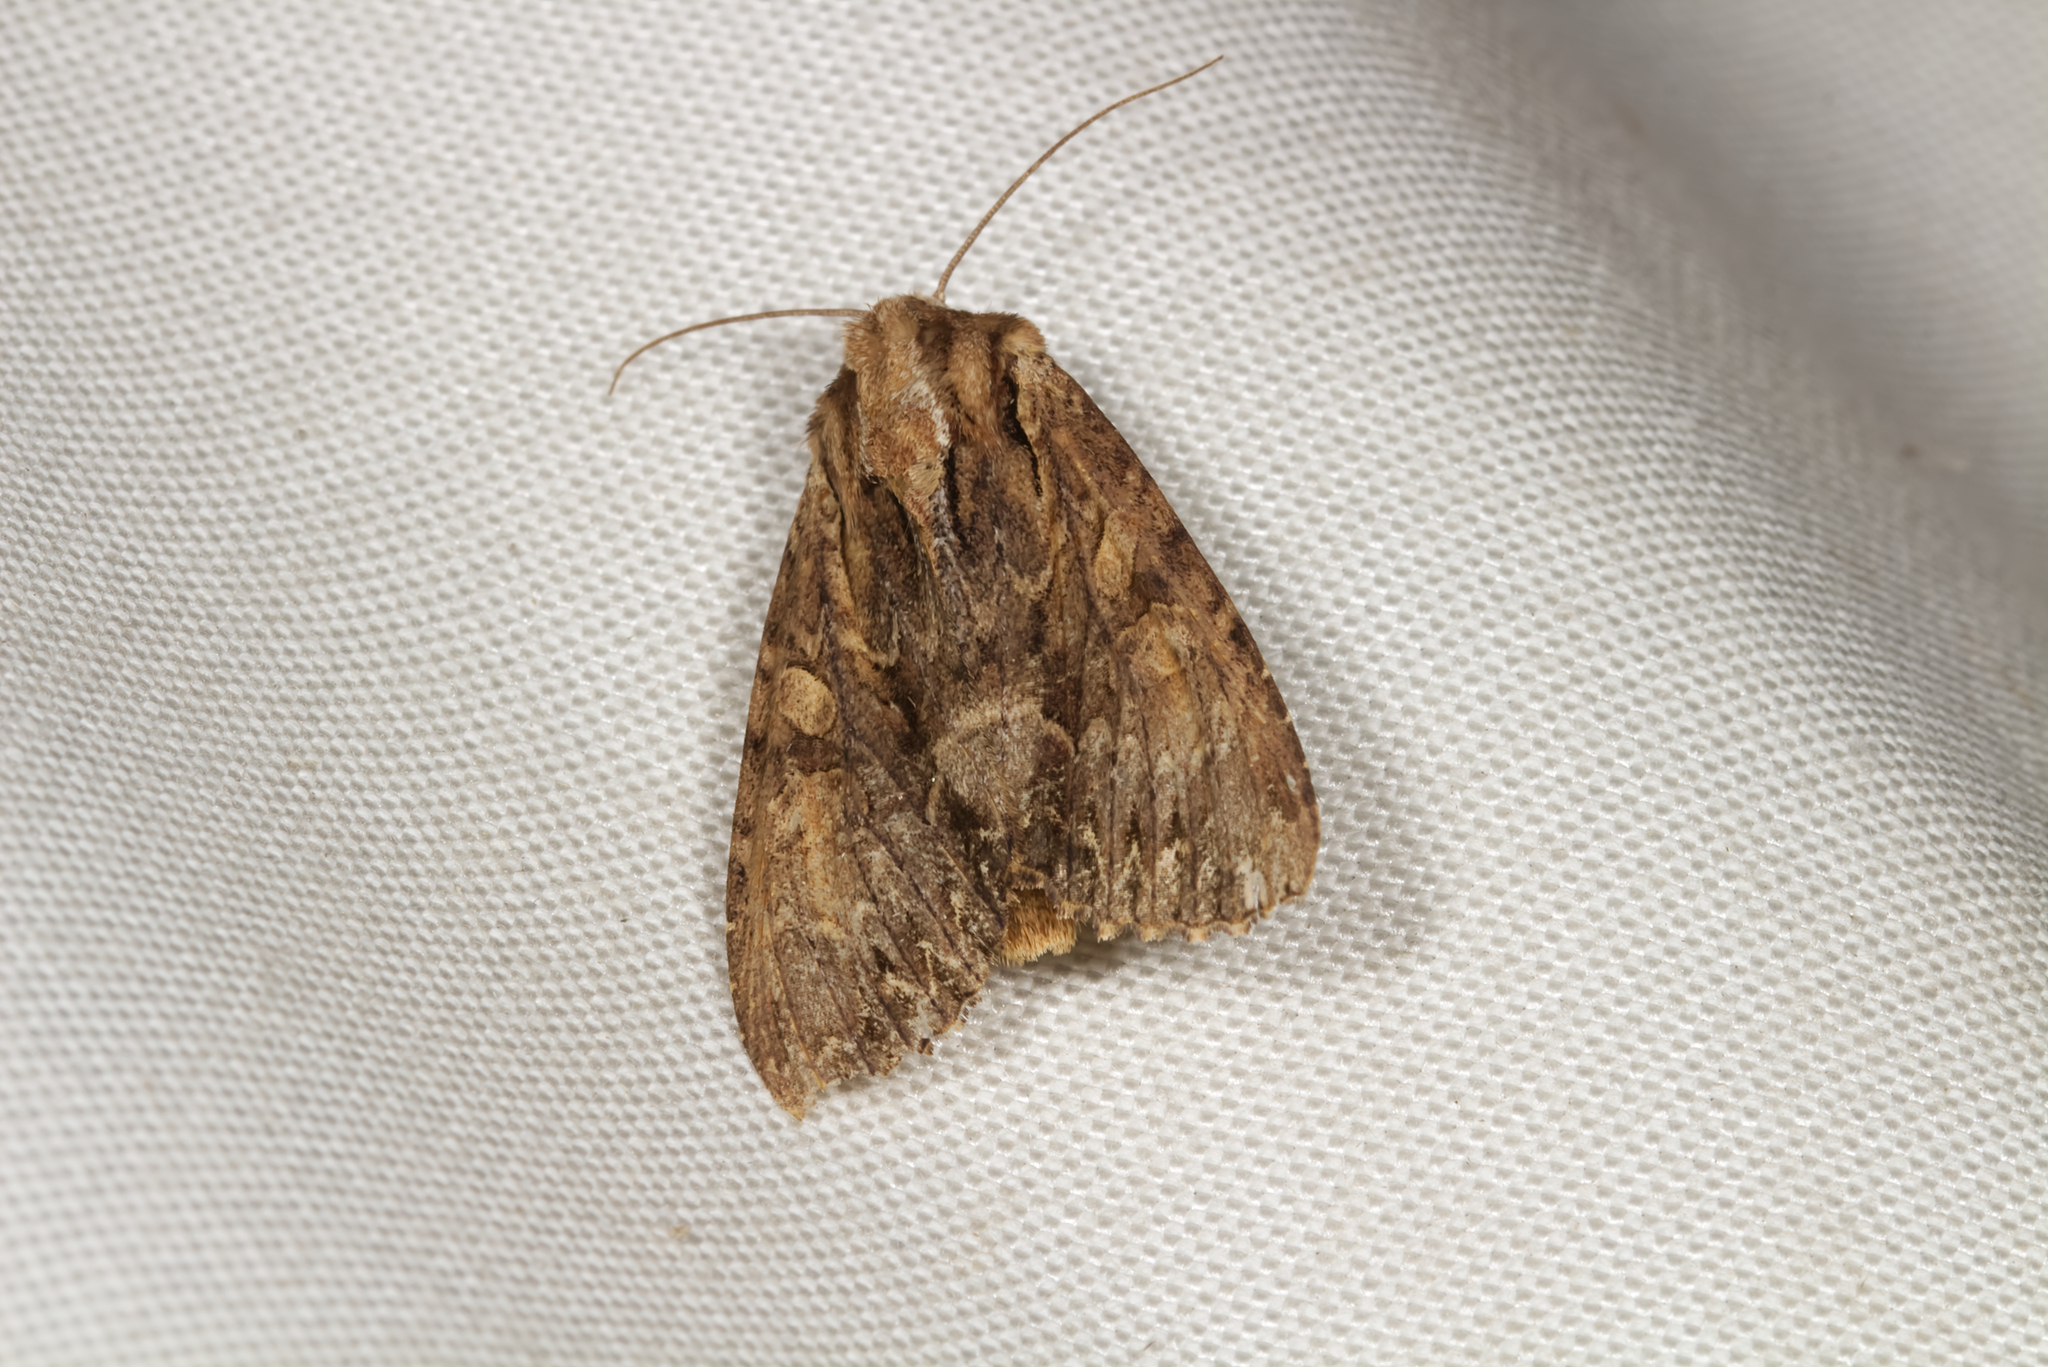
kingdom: Animalia
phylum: Arthropoda
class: Insecta
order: Lepidoptera
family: Noctuidae
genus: Apamea
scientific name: Apamea monoglypha
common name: Dark arches
